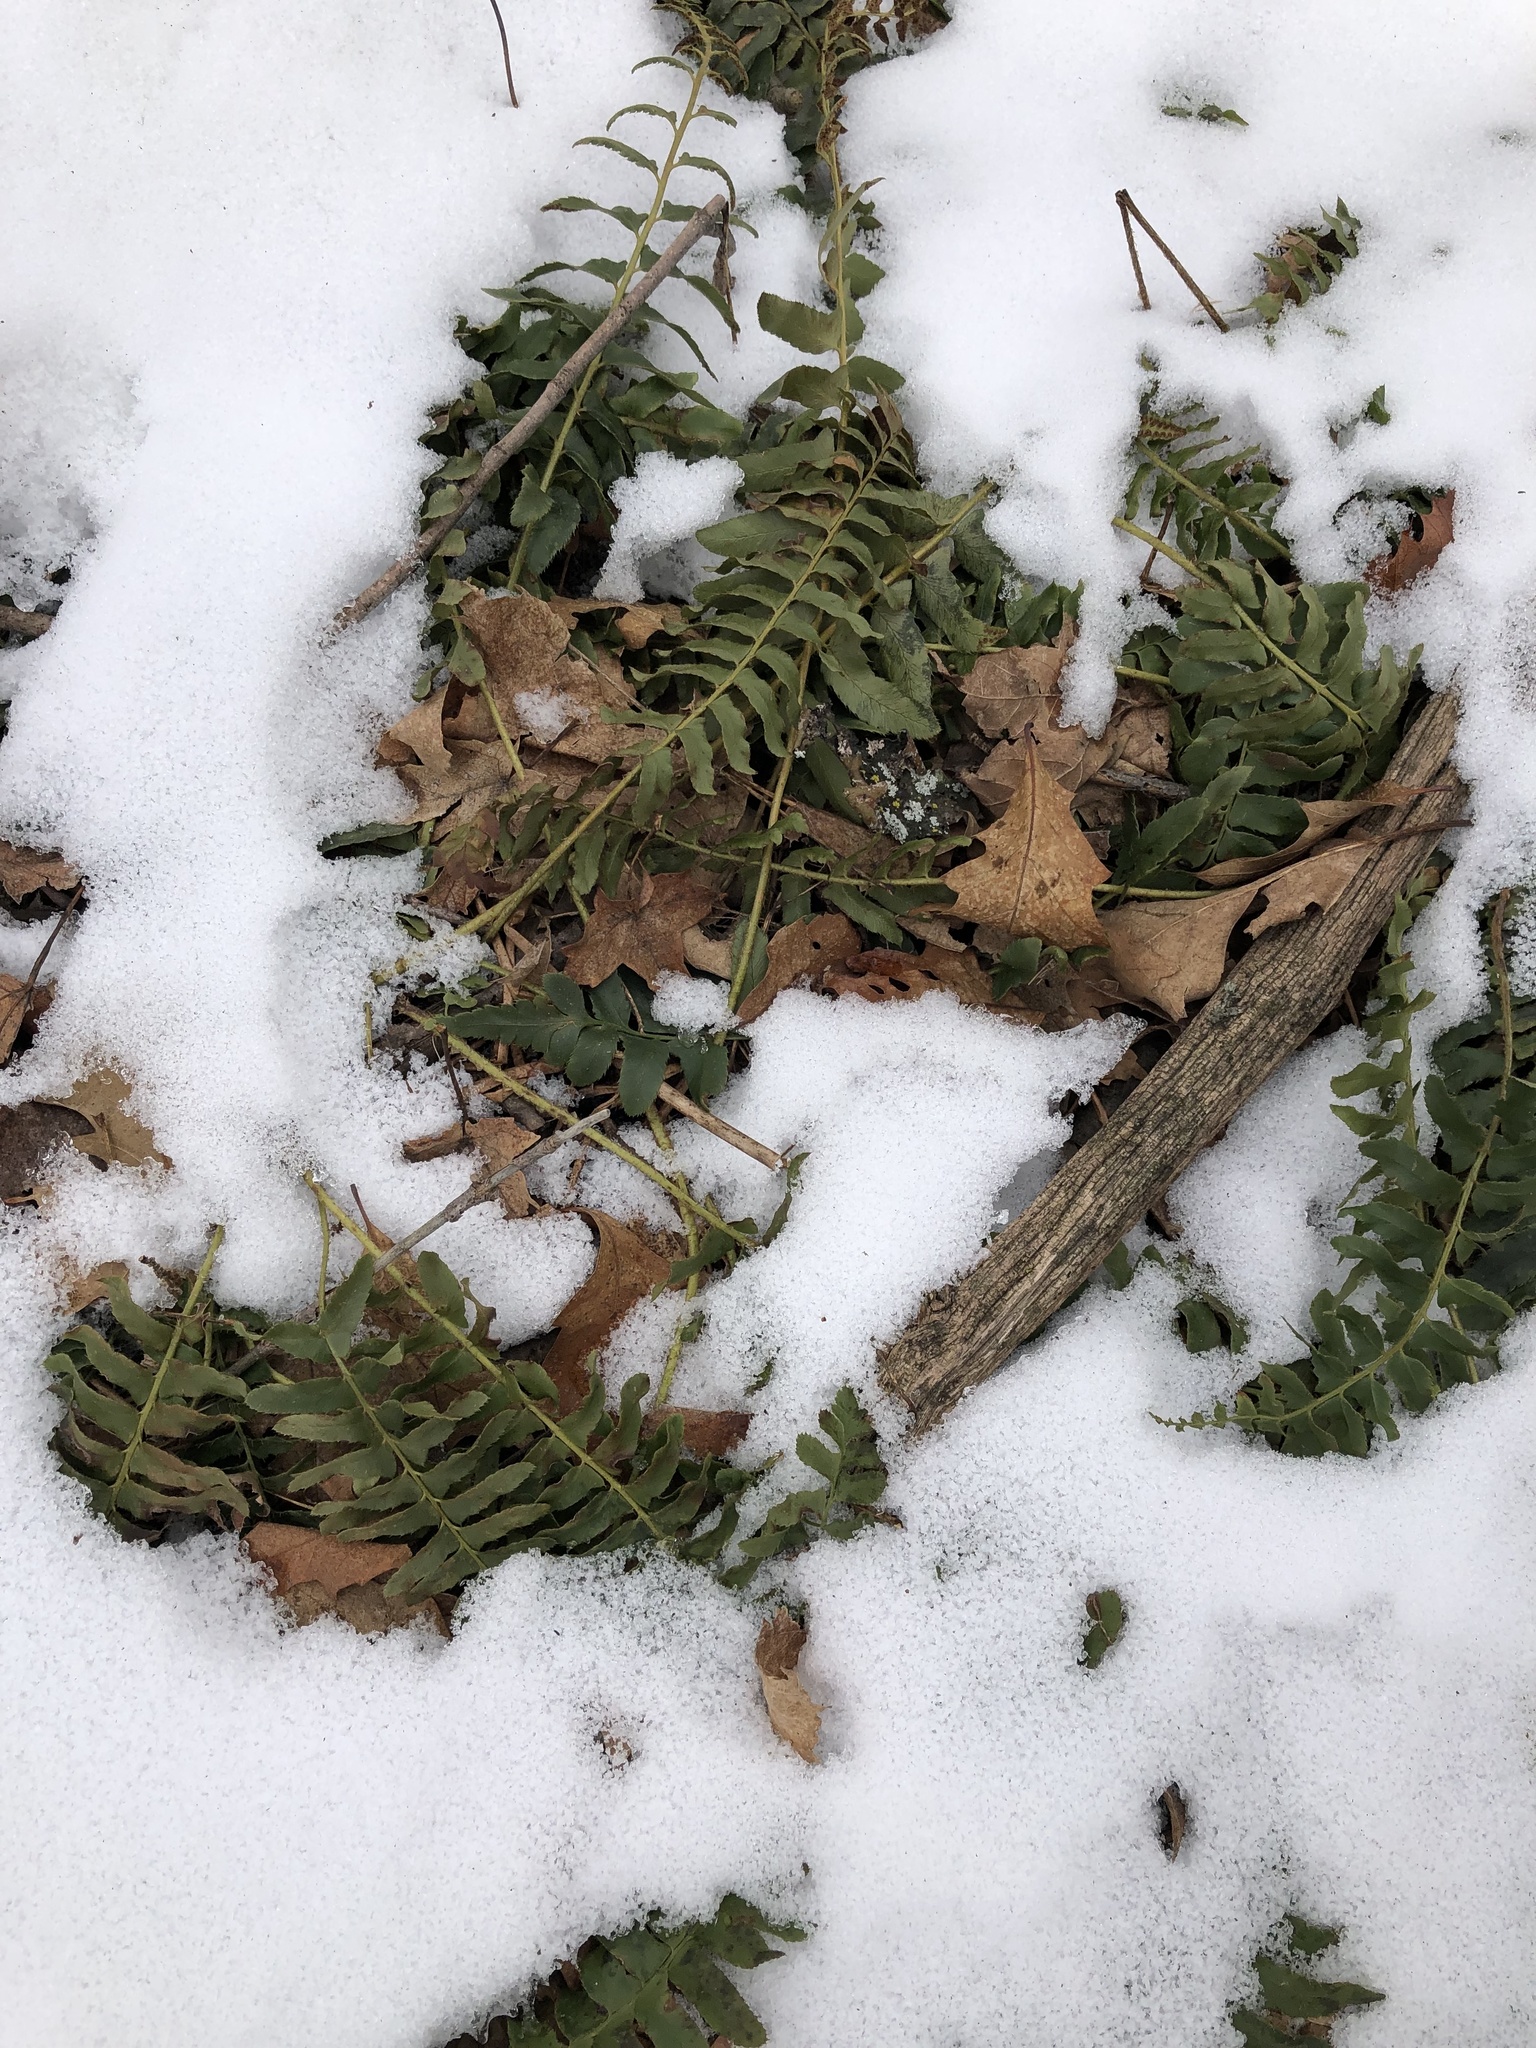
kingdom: Plantae
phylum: Tracheophyta
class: Polypodiopsida
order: Polypodiales
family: Dryopteridaceae
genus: Polystichum
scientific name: Polystichum acrostichoides
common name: Christmas fern
